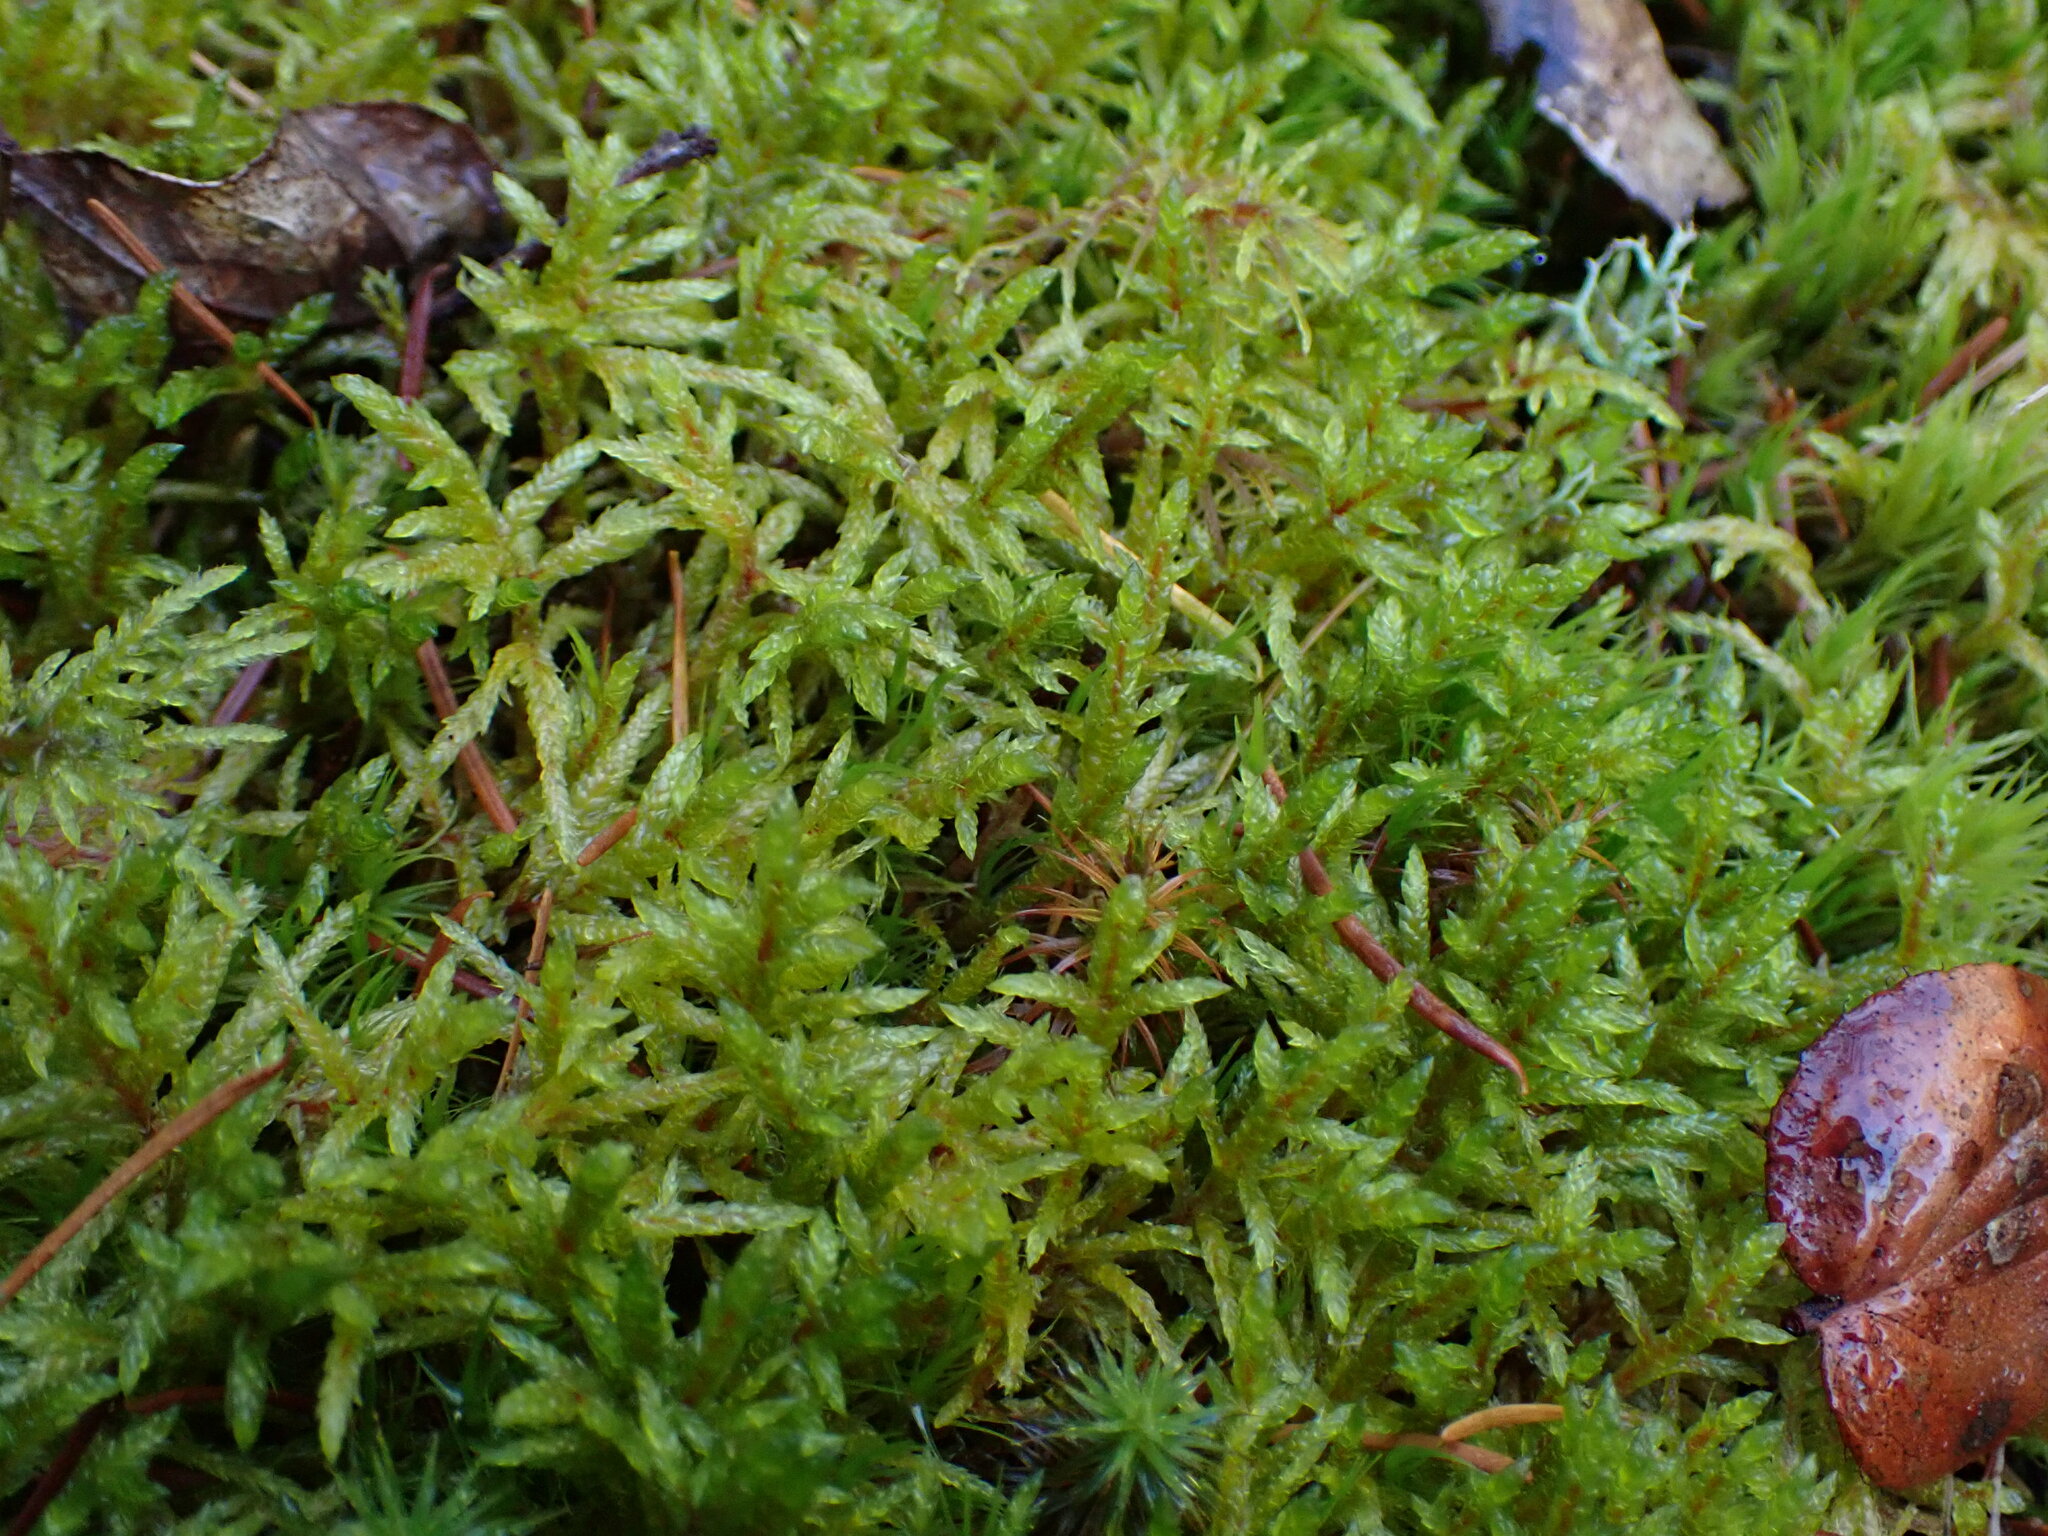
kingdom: Plantae
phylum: Bryophyta
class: Bryopsida
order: Hypnales
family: Hylocomiaceae
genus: Pleurozium
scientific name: Pleurozium schreberi
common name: Red-stemmed feather moss
